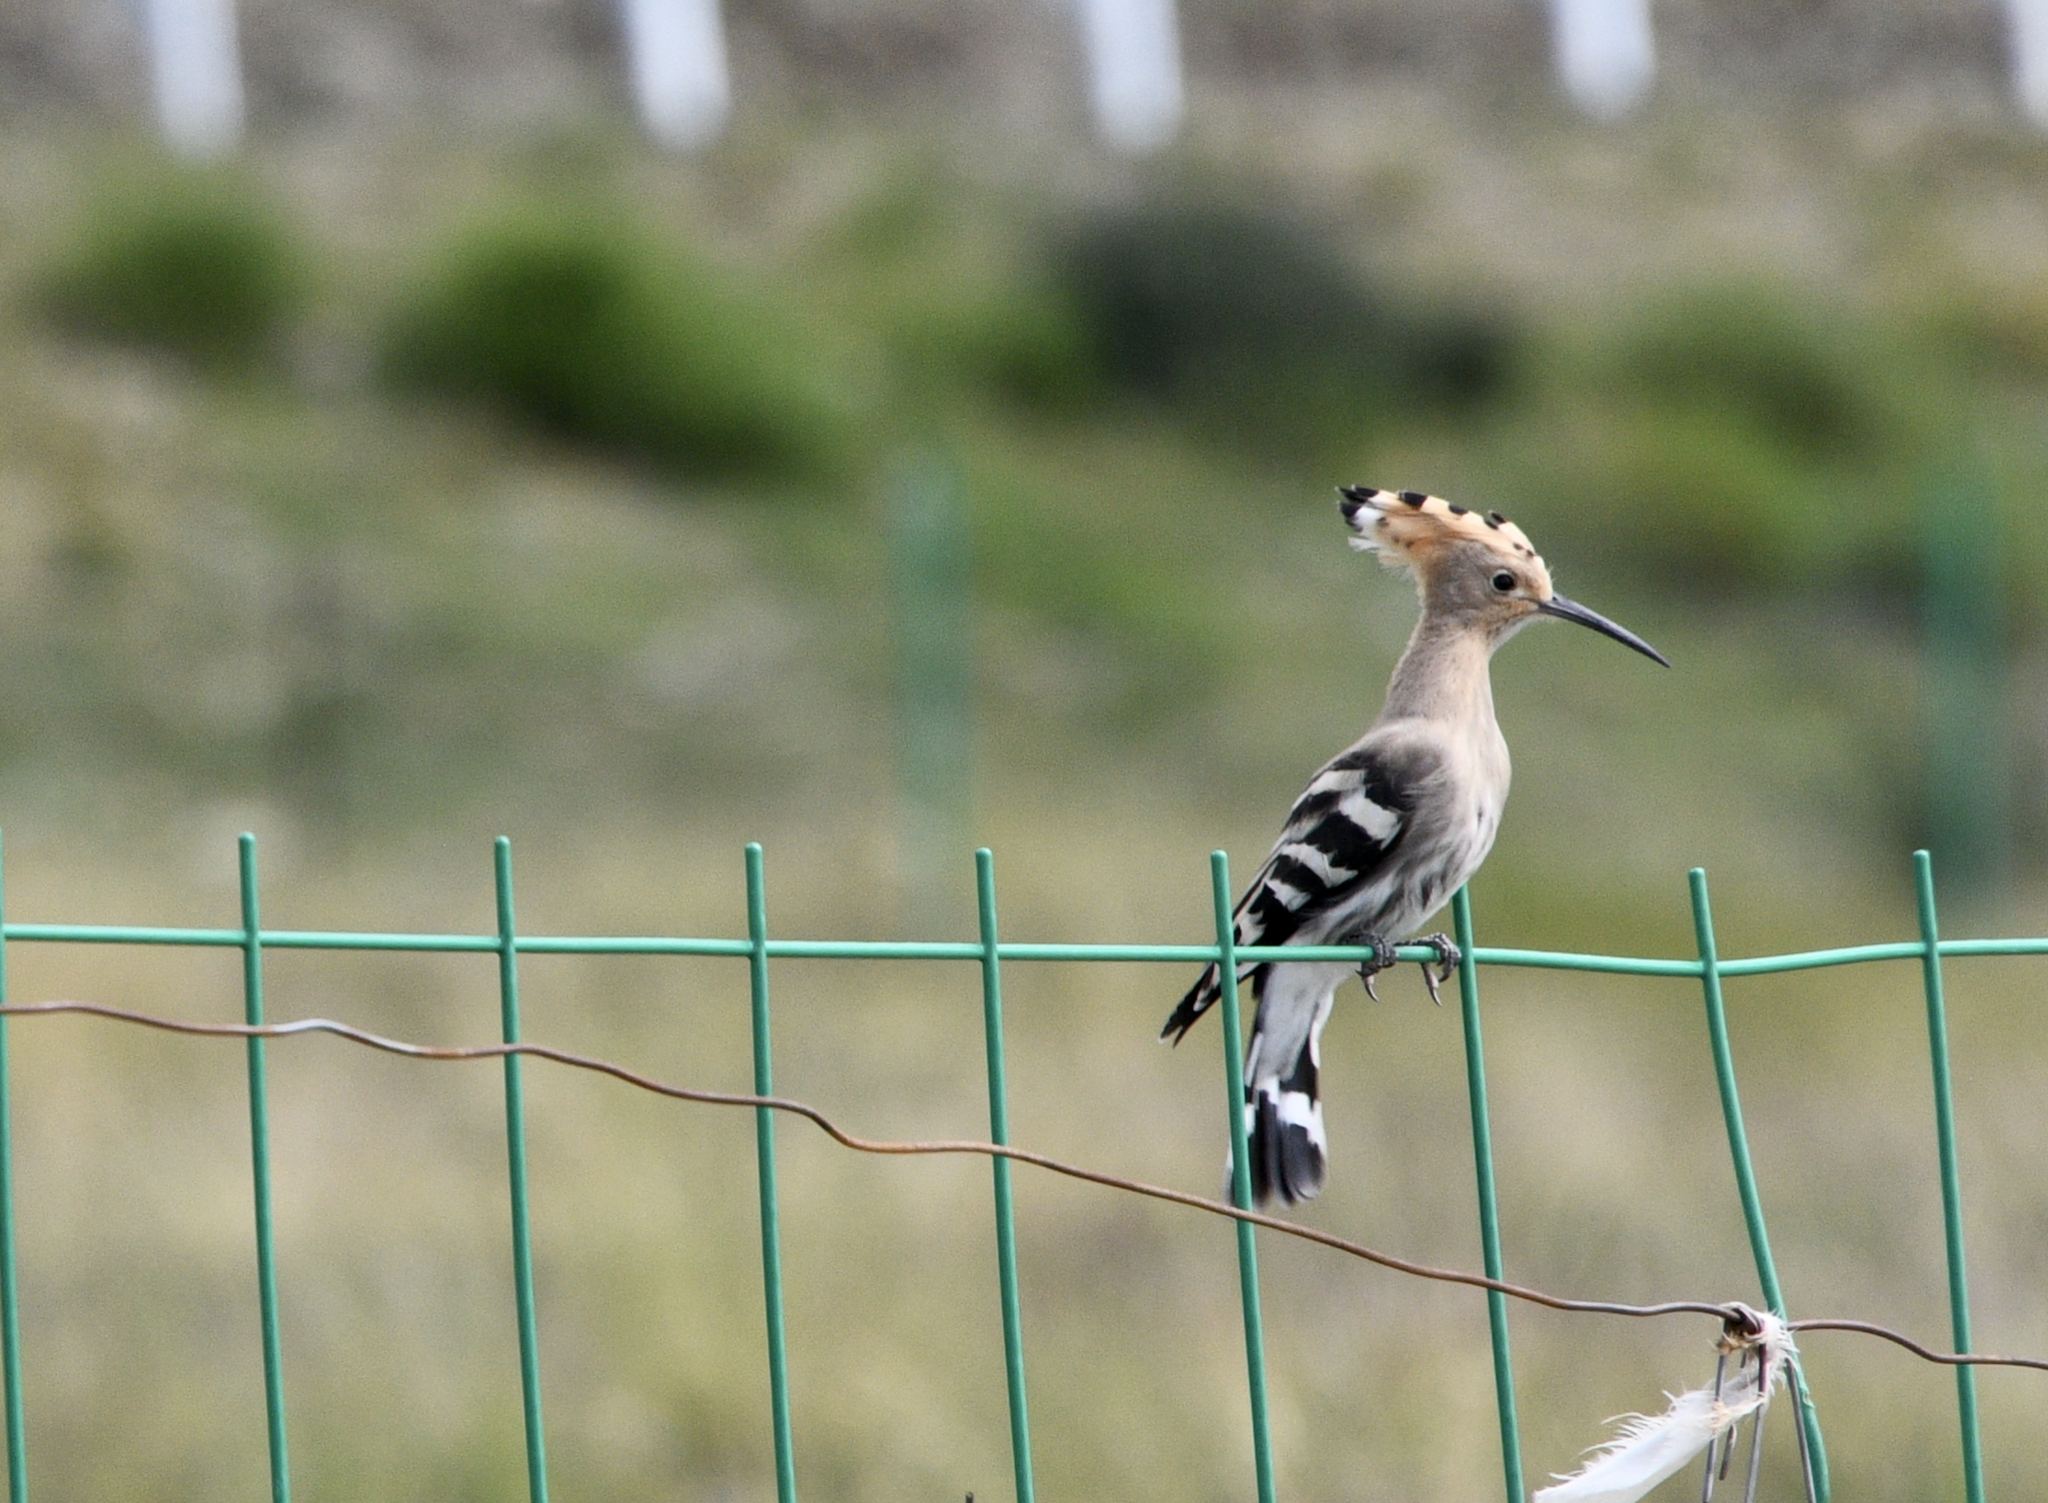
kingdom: Animalia
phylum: Chordata
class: Aves
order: Bucerotiformes
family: Upupidae
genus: Upupa
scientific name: Upupa epops
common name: Eurasian hoopoe
